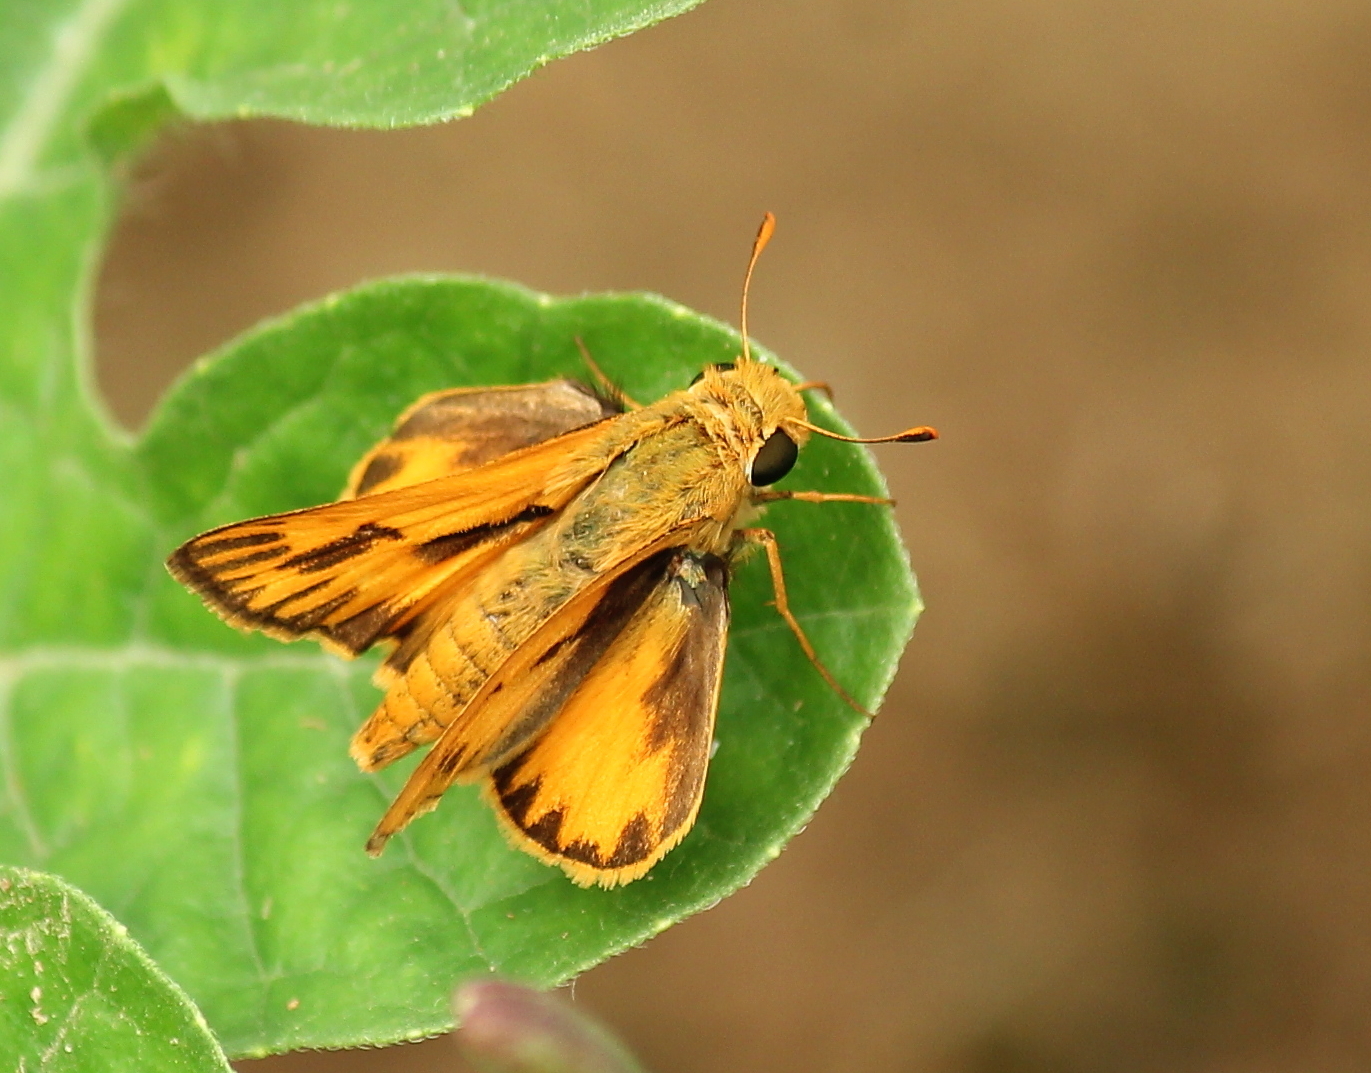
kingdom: Animalia
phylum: Arthropoda
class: Insecta
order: Lepidoptera
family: Hesperiidae
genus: Hylephila
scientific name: Hylephila phyleus
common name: Fiery skipper
